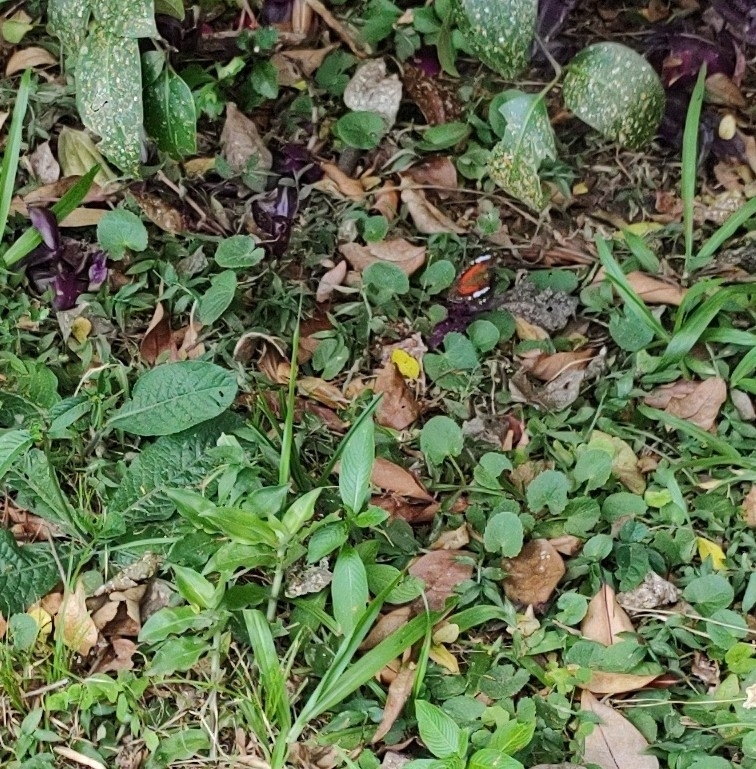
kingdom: Animalia
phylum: Arthropoda
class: Insecta
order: Lepidoptera
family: Nymphalidae
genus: Anartia
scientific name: Anartia amathea
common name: Red peacock
